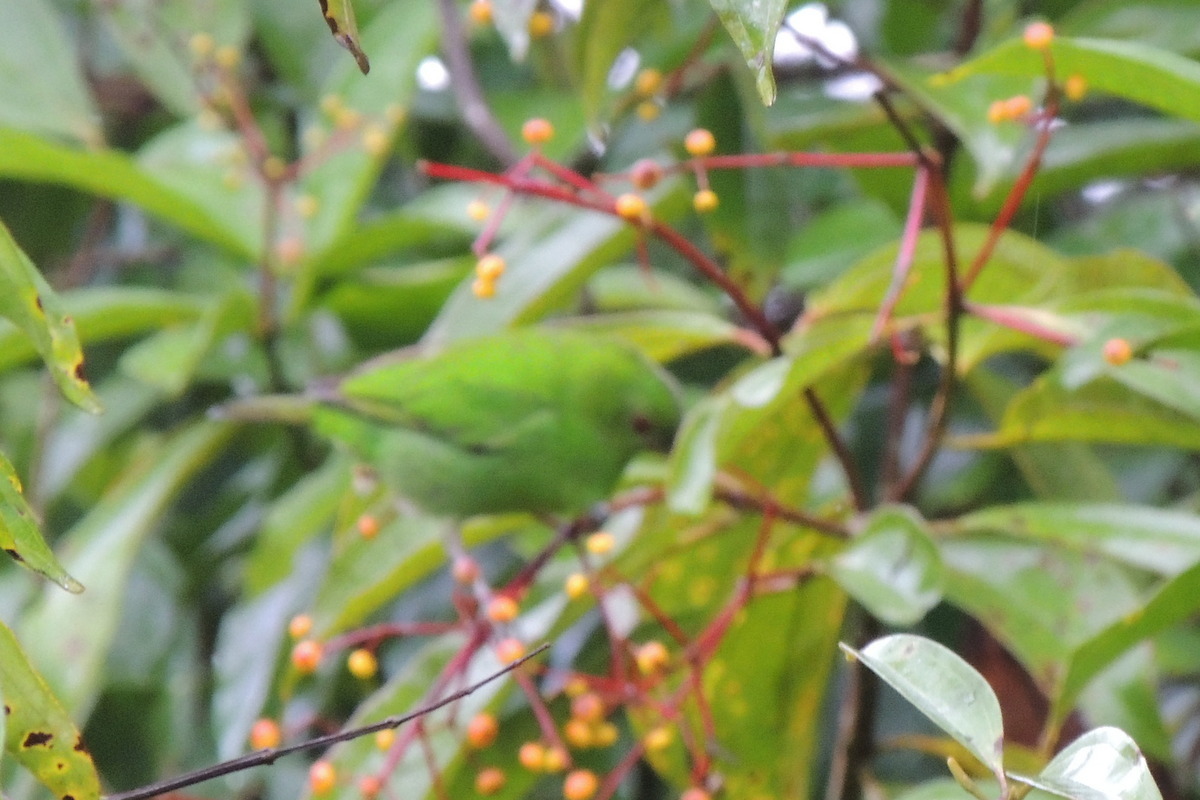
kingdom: Animalia
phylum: Chordata
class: Aves
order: Passeriformes
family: Thraupidae
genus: Chlorophanes
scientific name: Chlorophanes spiza
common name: Green honeycreeper
